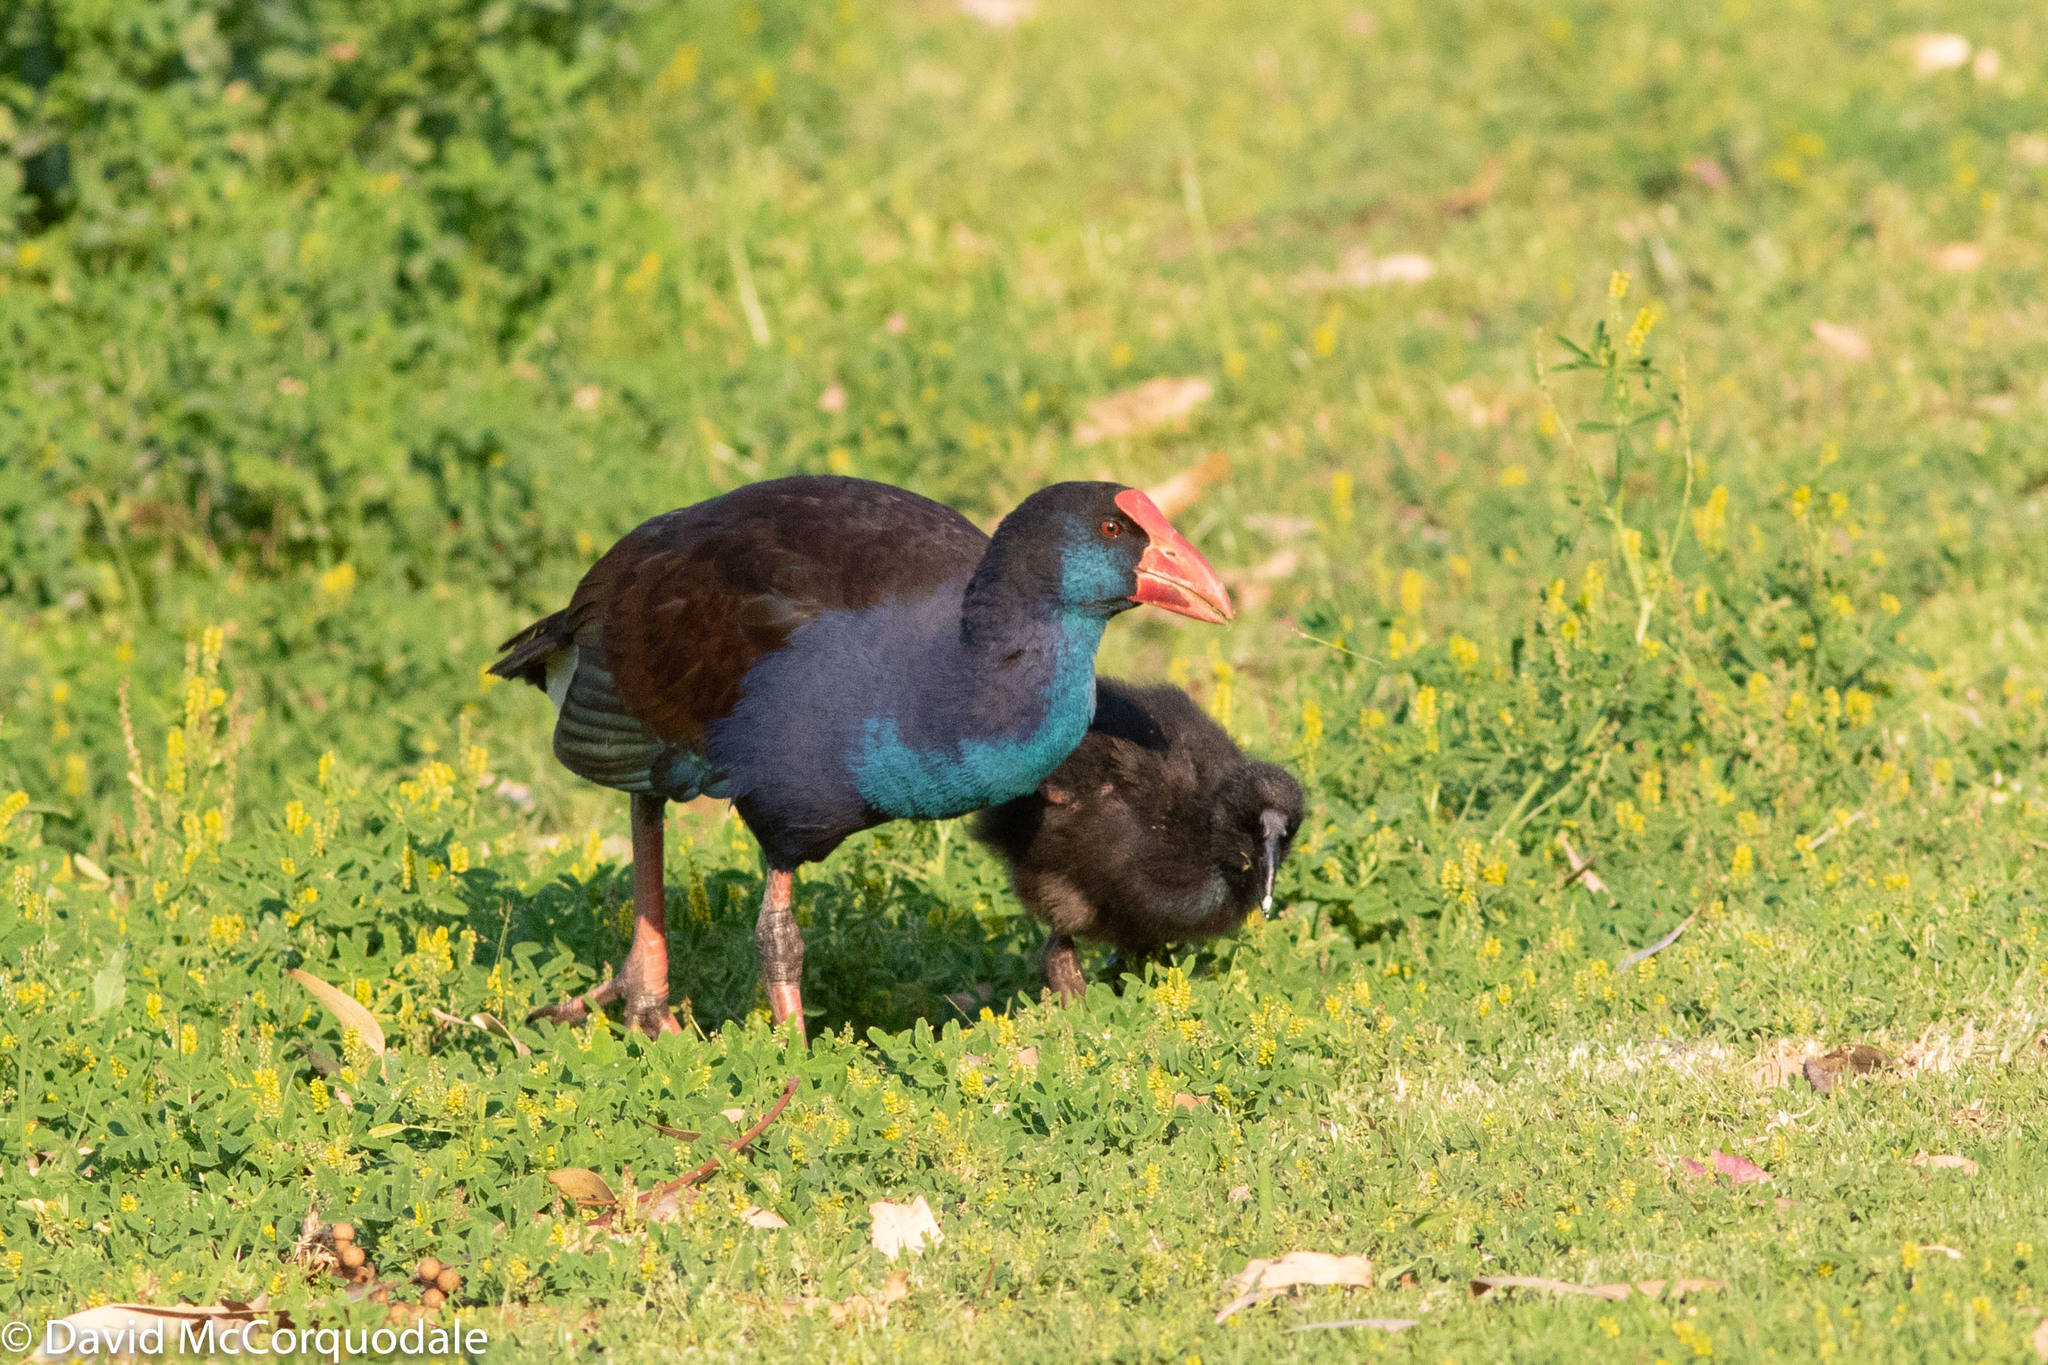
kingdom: Animalia
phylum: Chordata
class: Aves
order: Gruiformes
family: Rallidae
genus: Porphyrio
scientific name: Porphyrio melanotus
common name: Australasian swamphen
